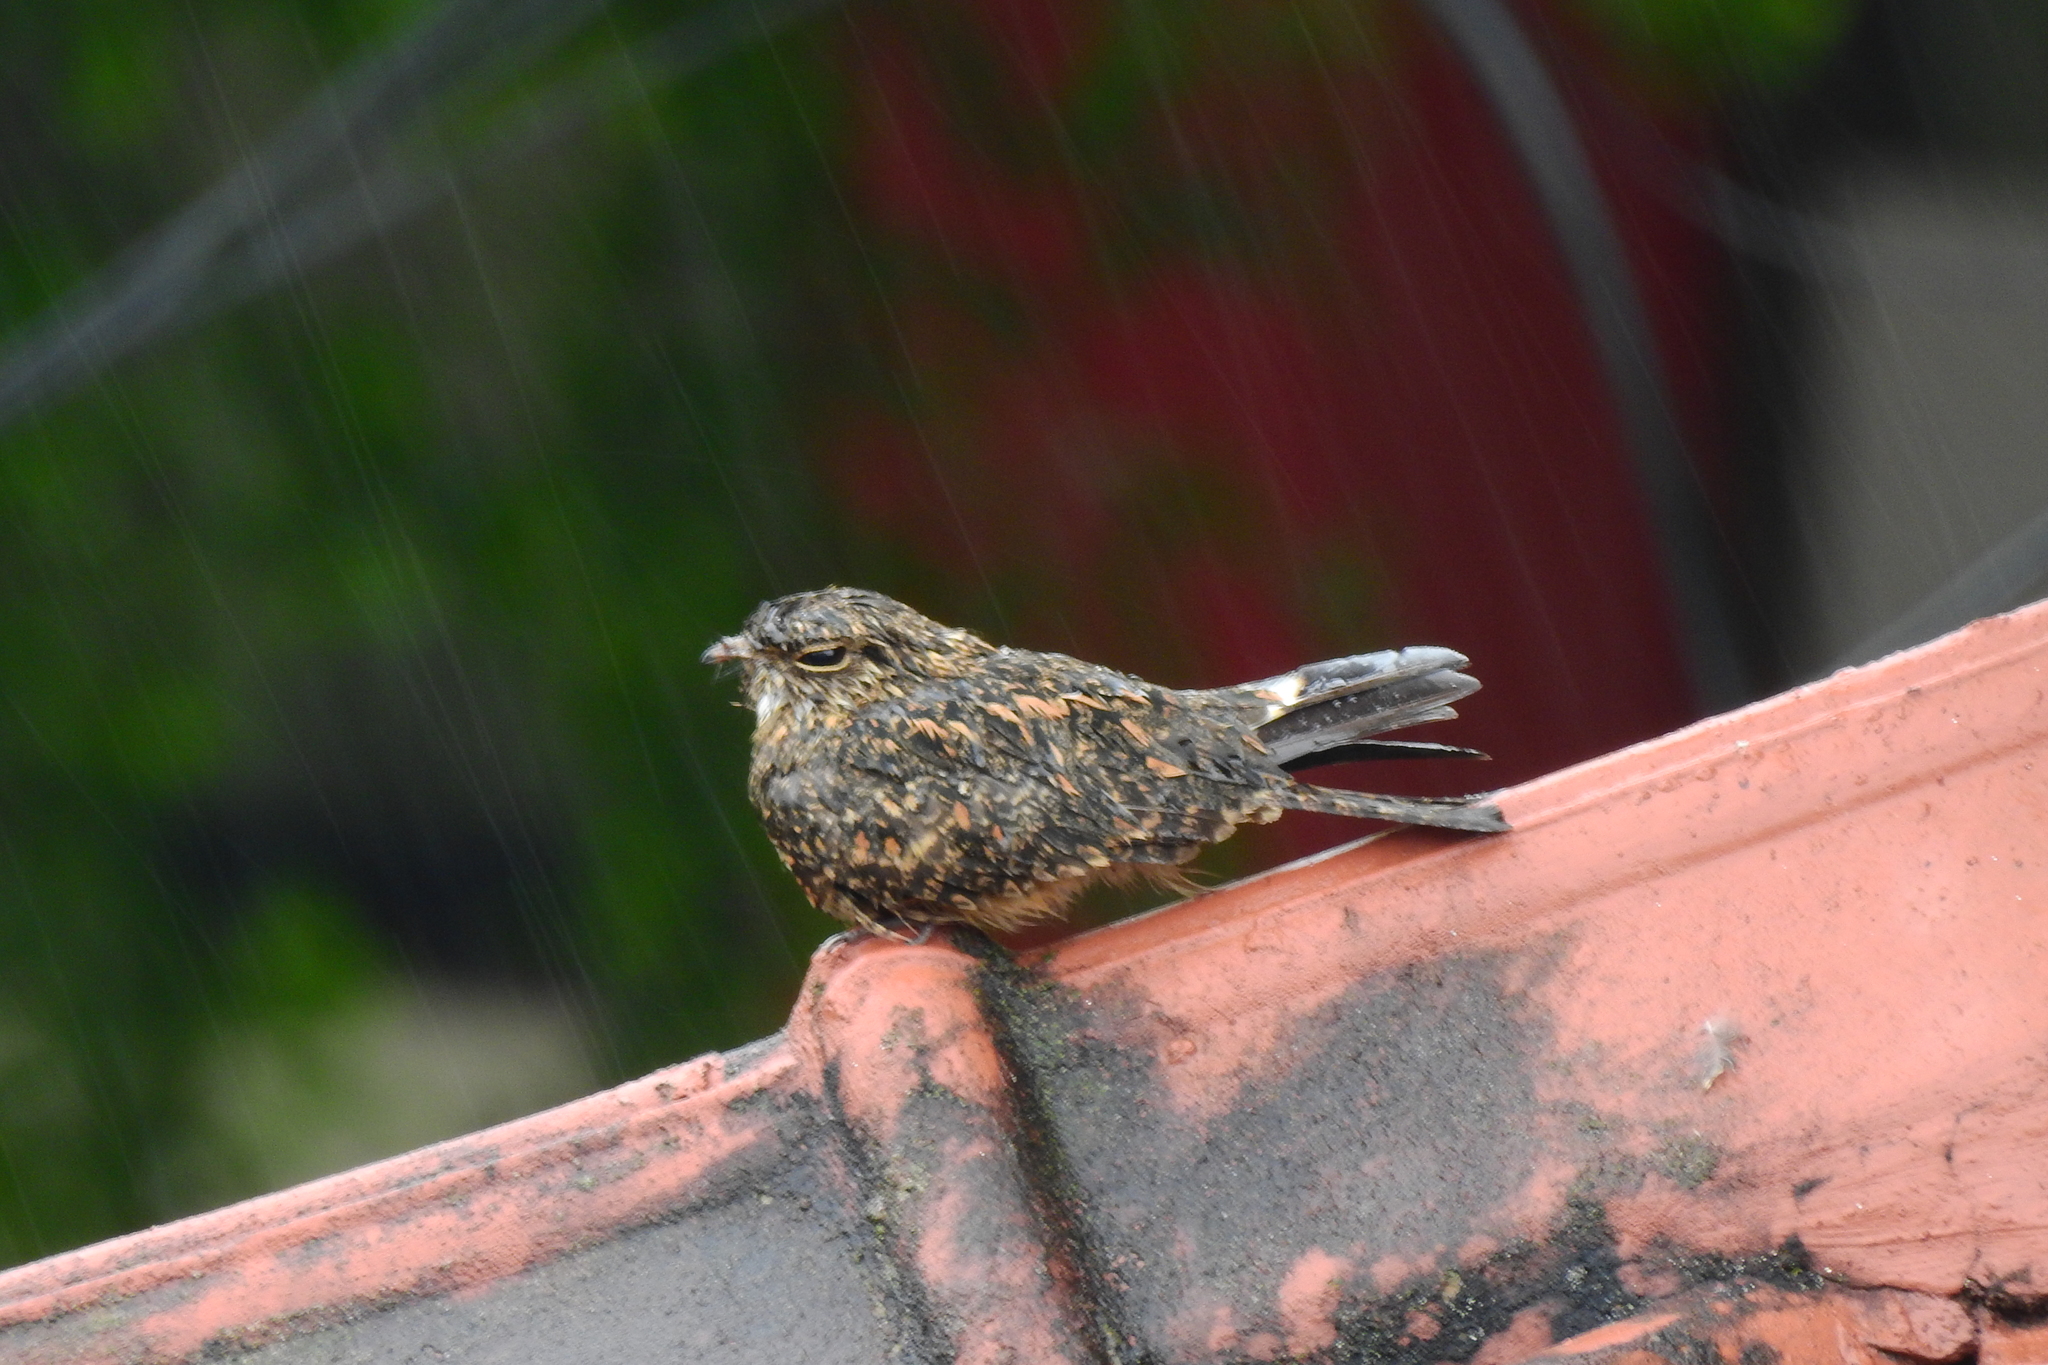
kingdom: Animalia
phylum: Chordata
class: Aves
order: Caprimulgiformes
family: Caprimulgidae
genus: Caprimulgus
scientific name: Caprimulgus affinis
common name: Savanna nightjar
